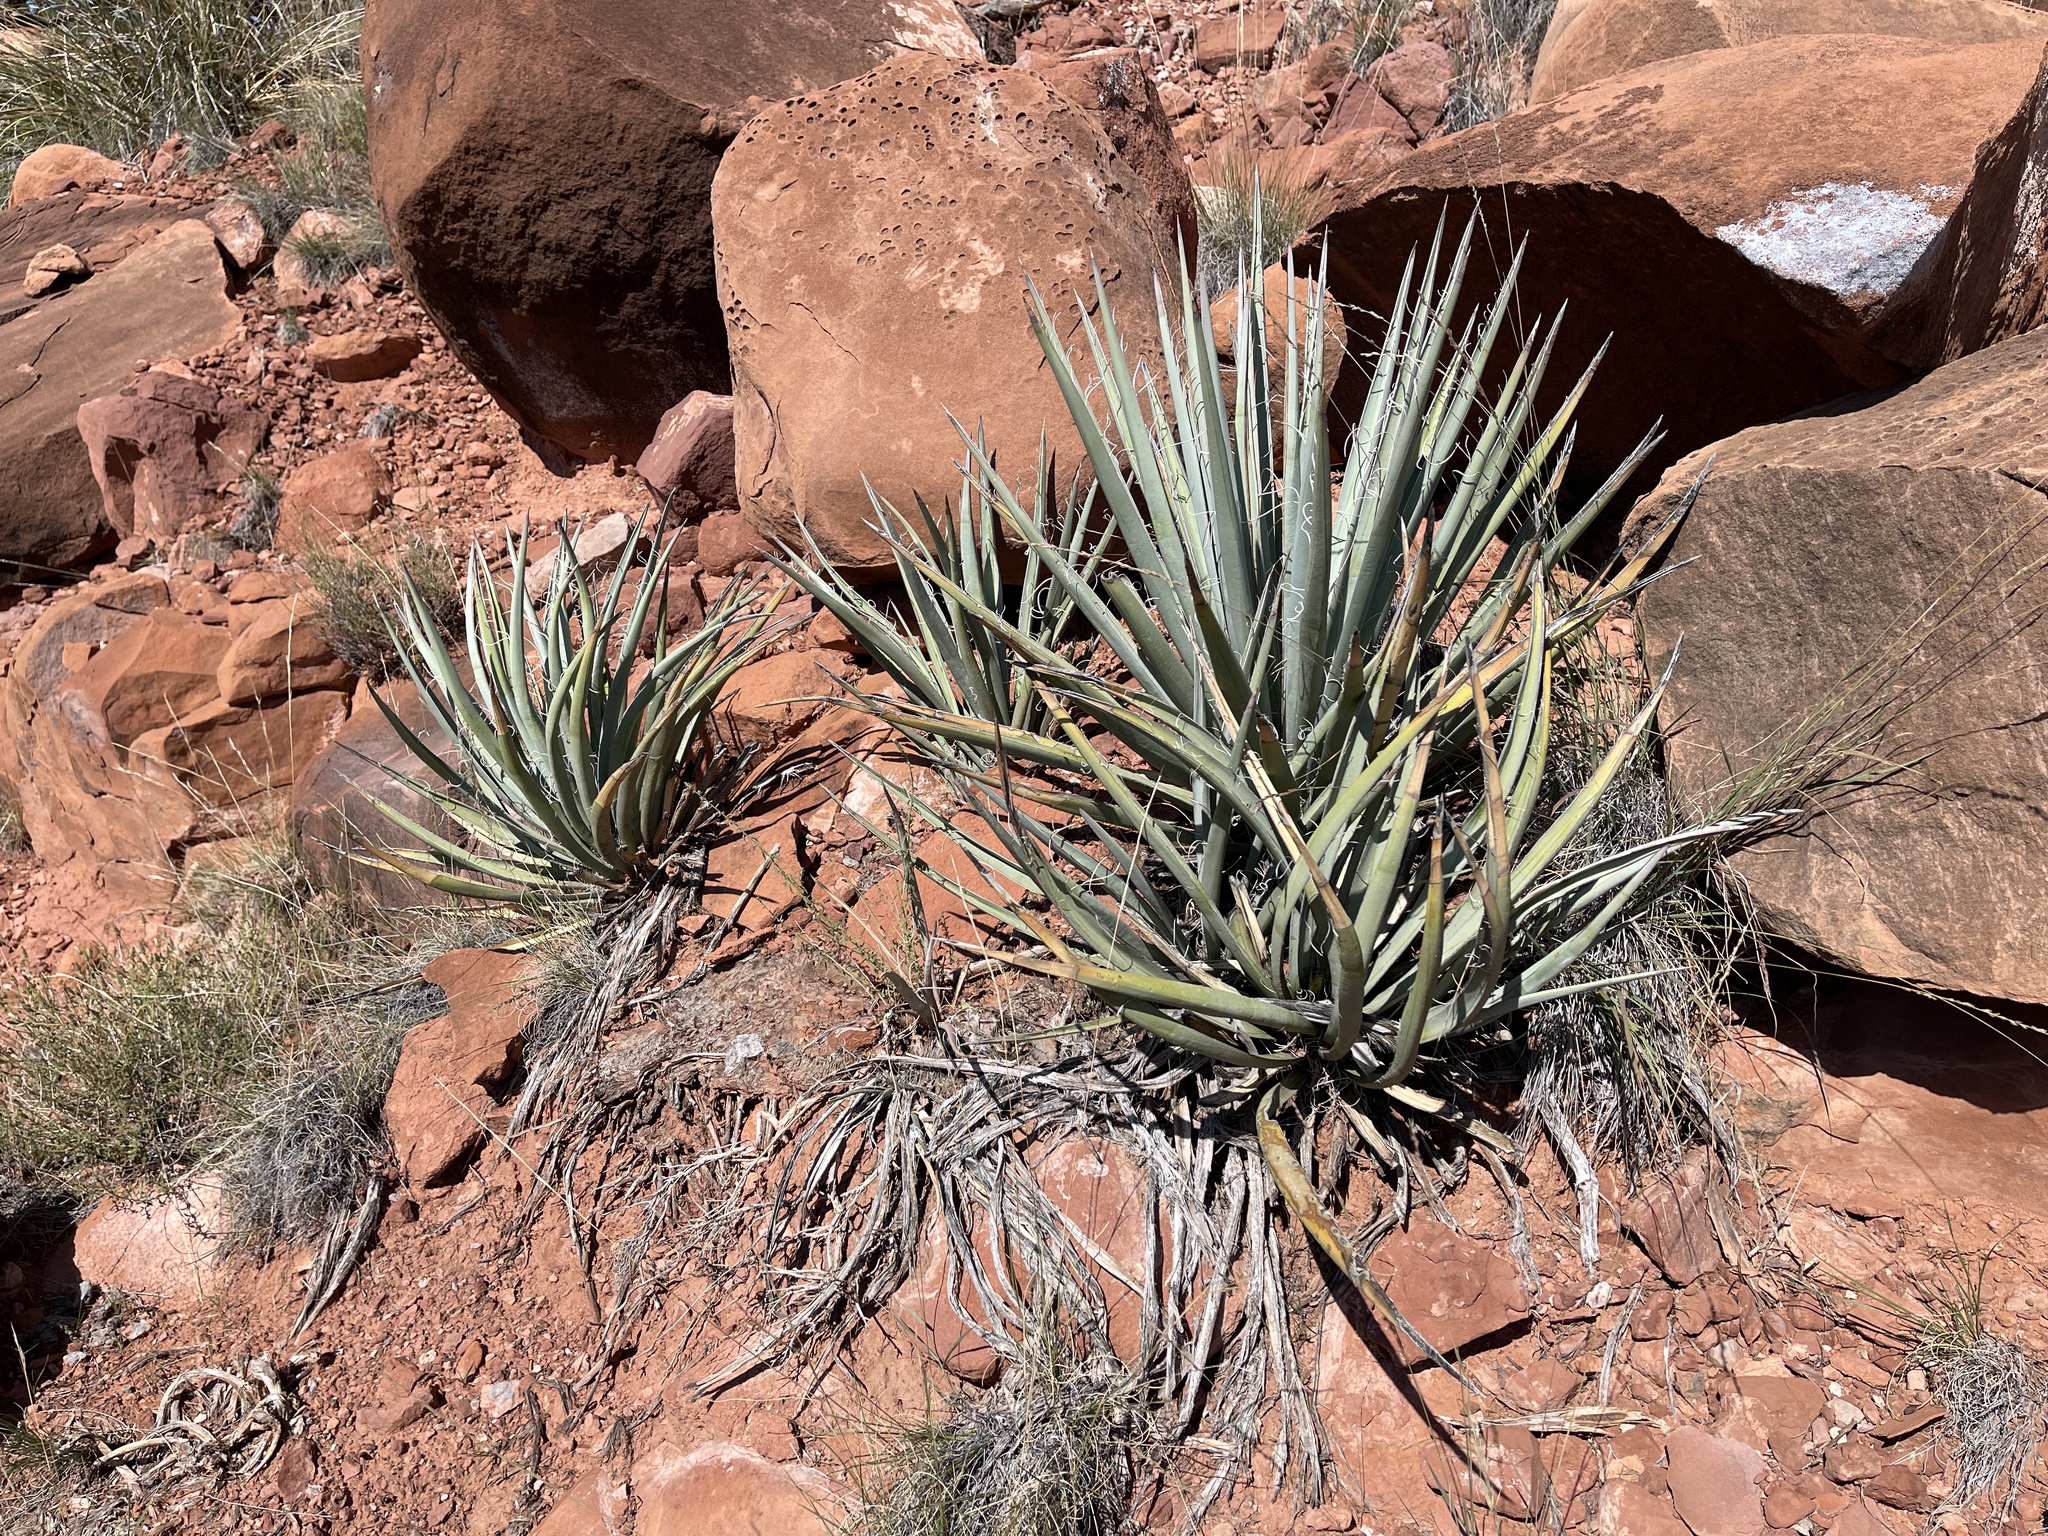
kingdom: Plantae
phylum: Tracheophyta
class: Liliopsida
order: Asparagales
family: Asparagaceae
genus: Yucca
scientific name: Yucca baccata
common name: Banana yucca
